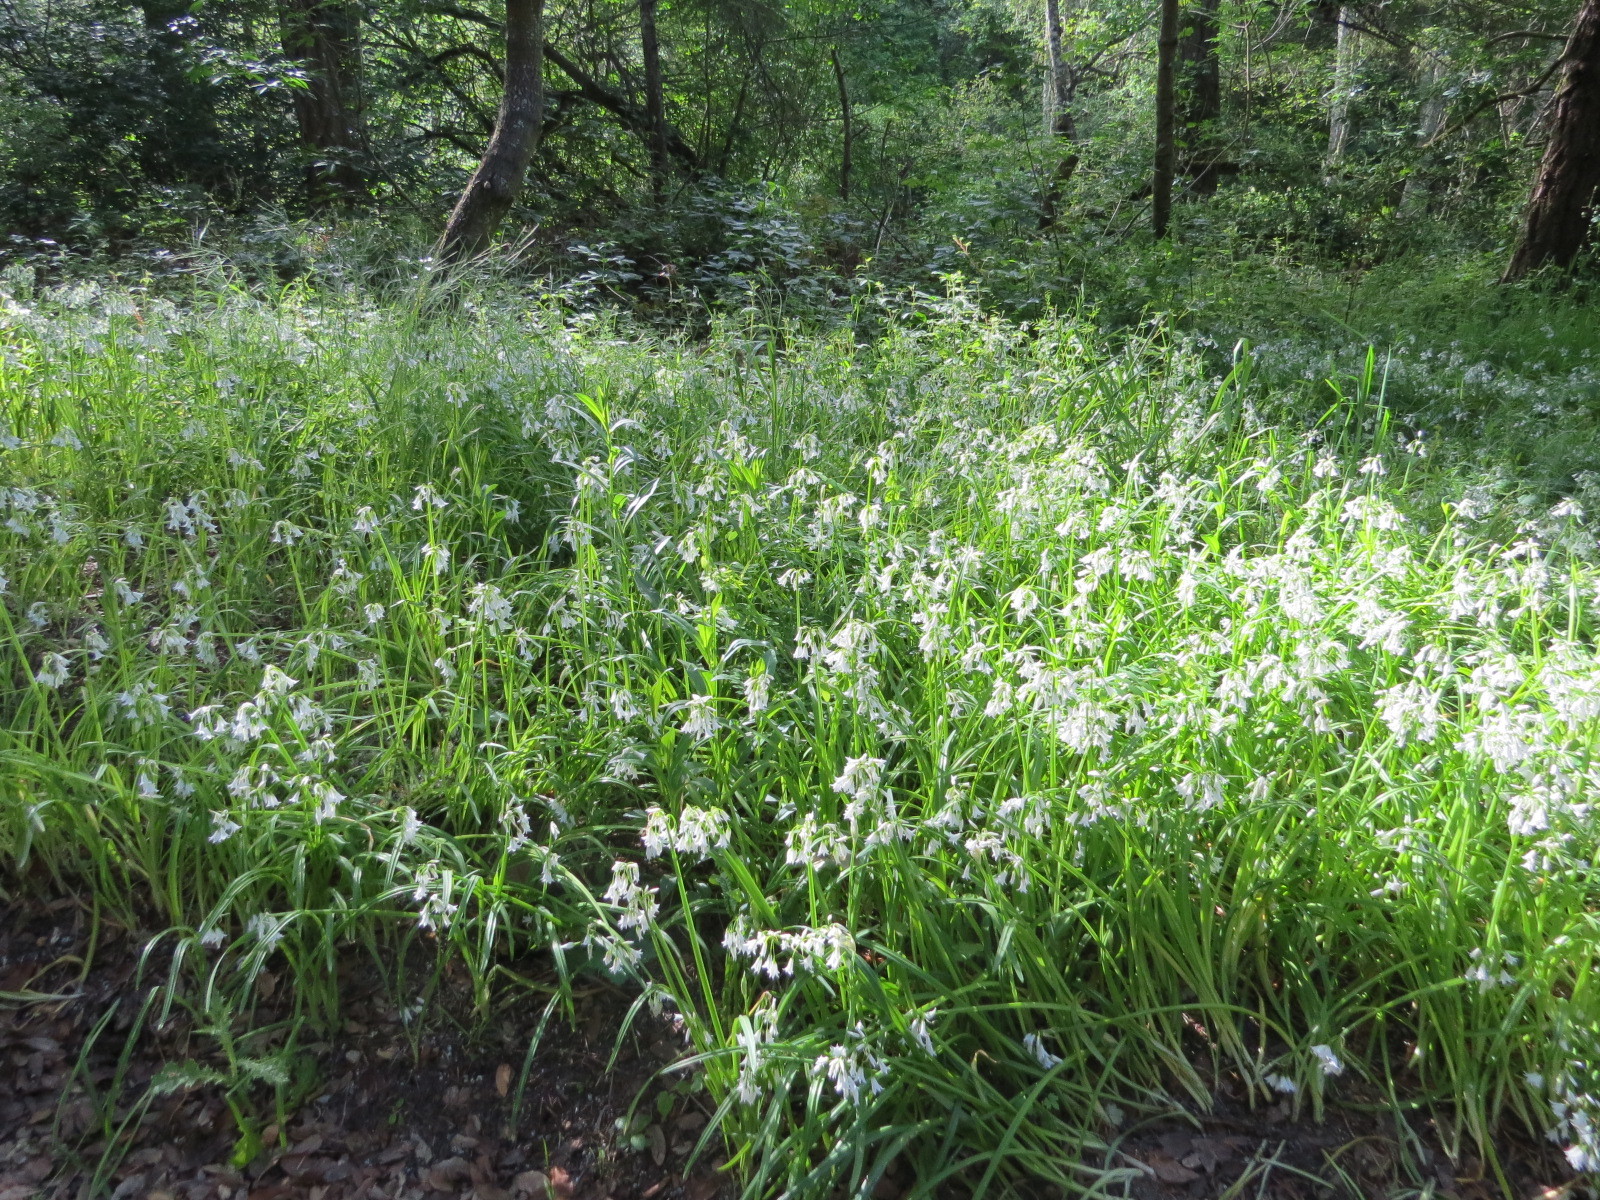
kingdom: Plantae
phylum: Tracheophyta
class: Liliopsida
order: Asparagales
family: Amaryllidaceae
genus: Allium
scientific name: Allium triquetrum
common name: Three-cornered garlic
